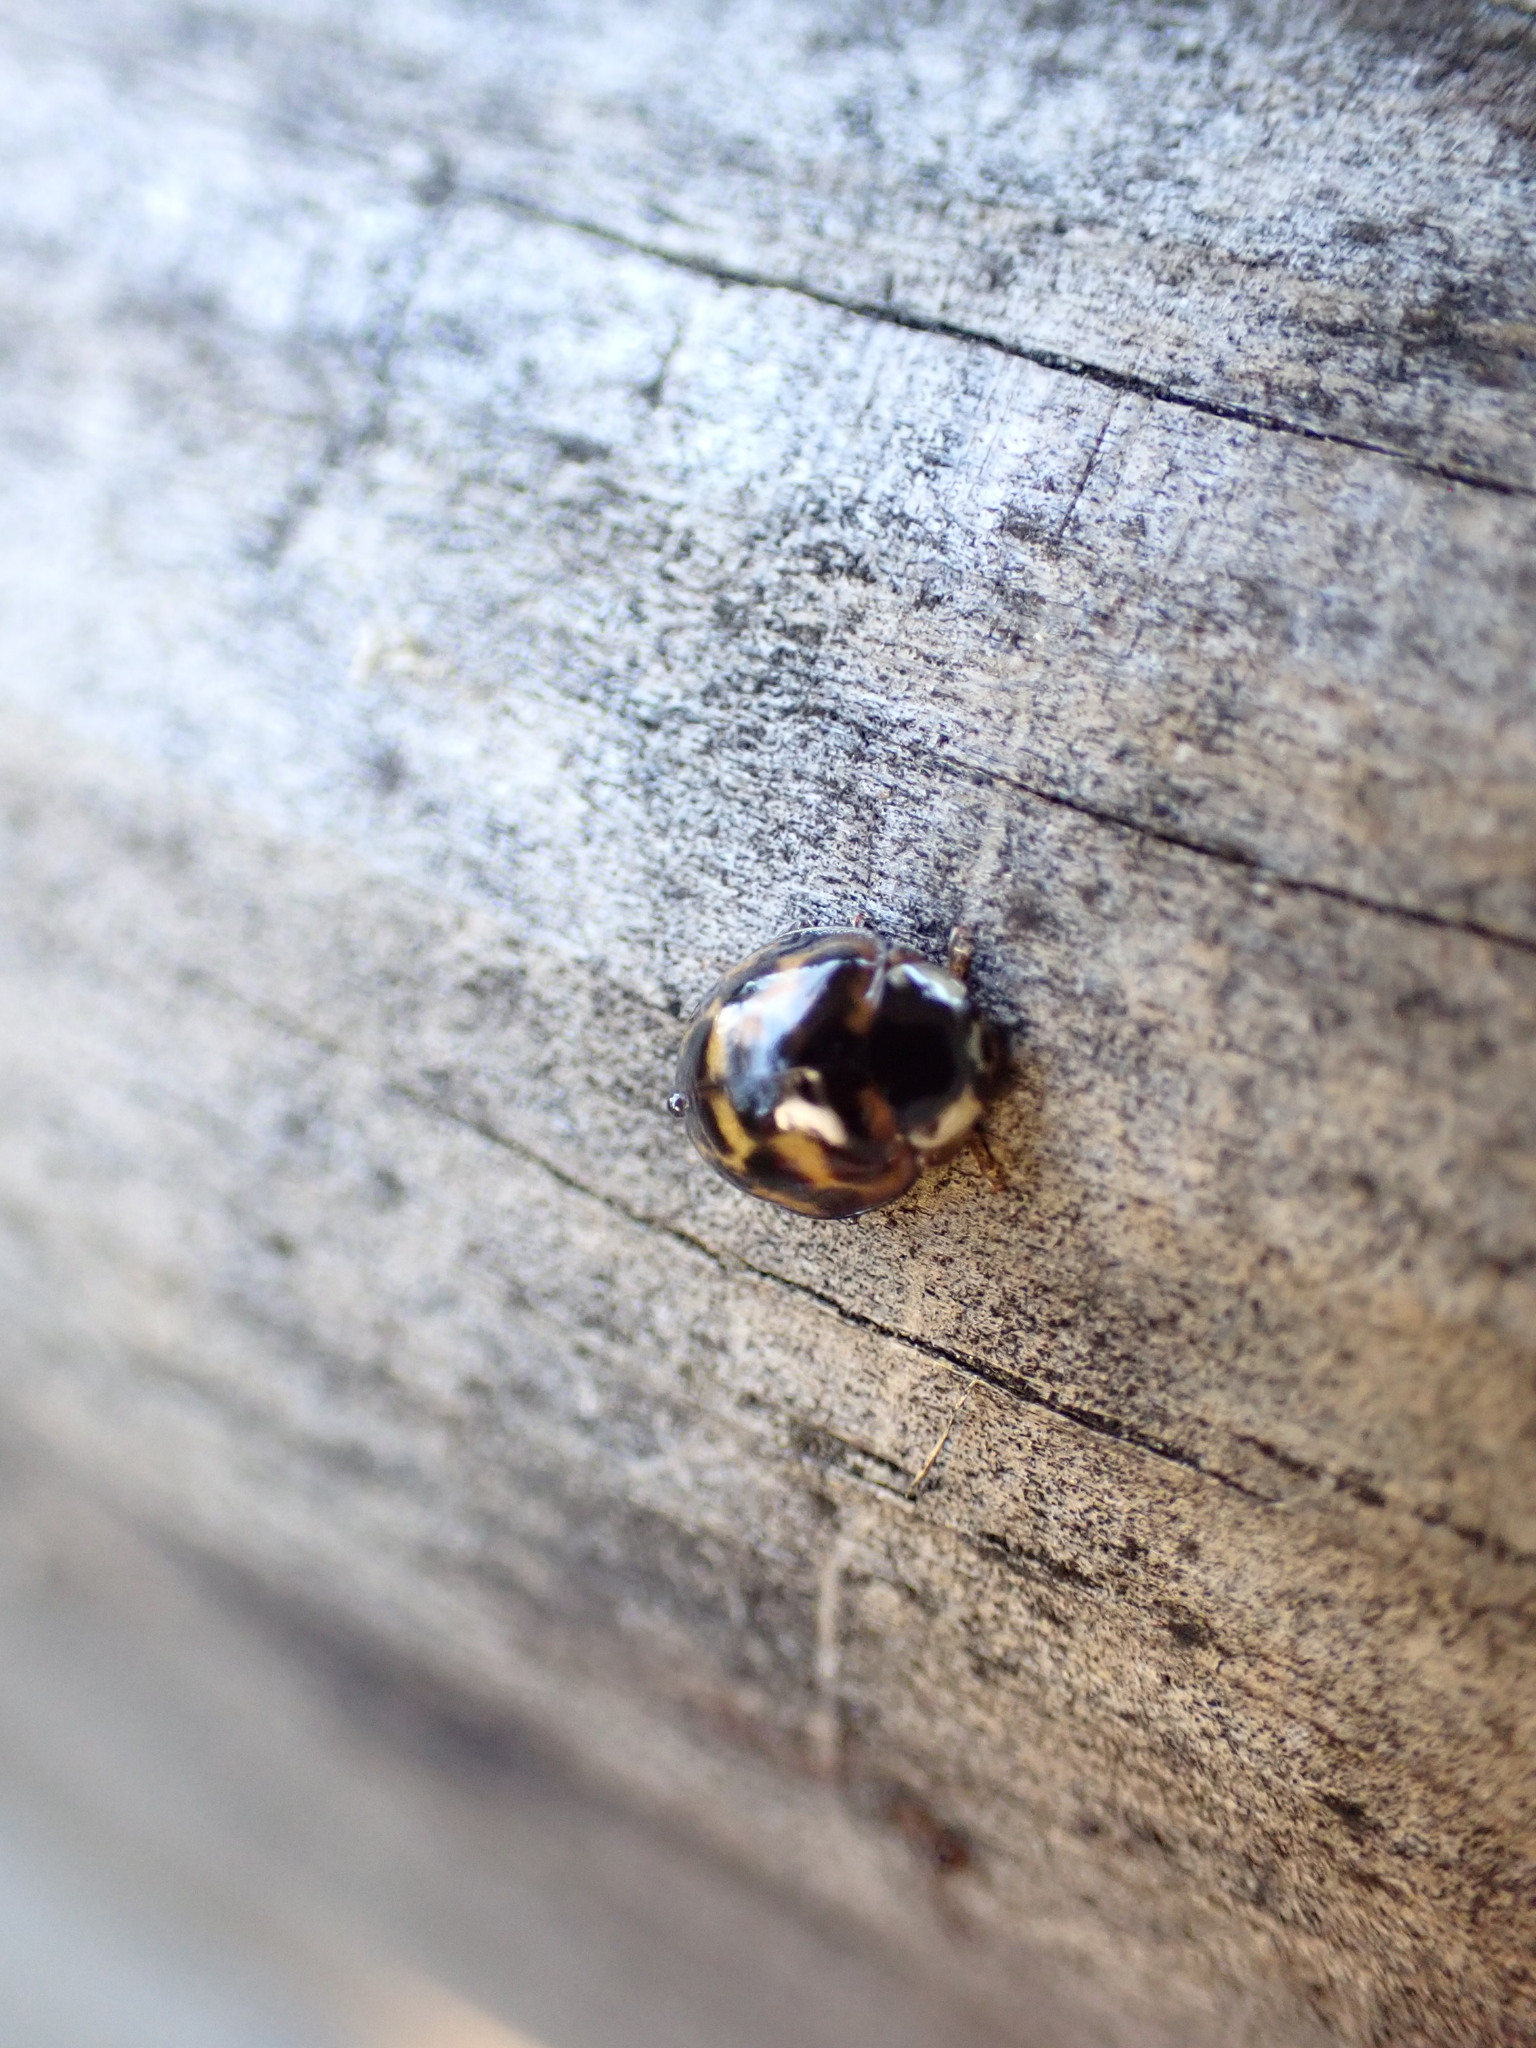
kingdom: Animalia
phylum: Arthropoda
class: Insecta
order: Coleoptera
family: Coccinellidae
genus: Harmonia
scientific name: Harmonia axyridis
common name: Harlequin ladybird
